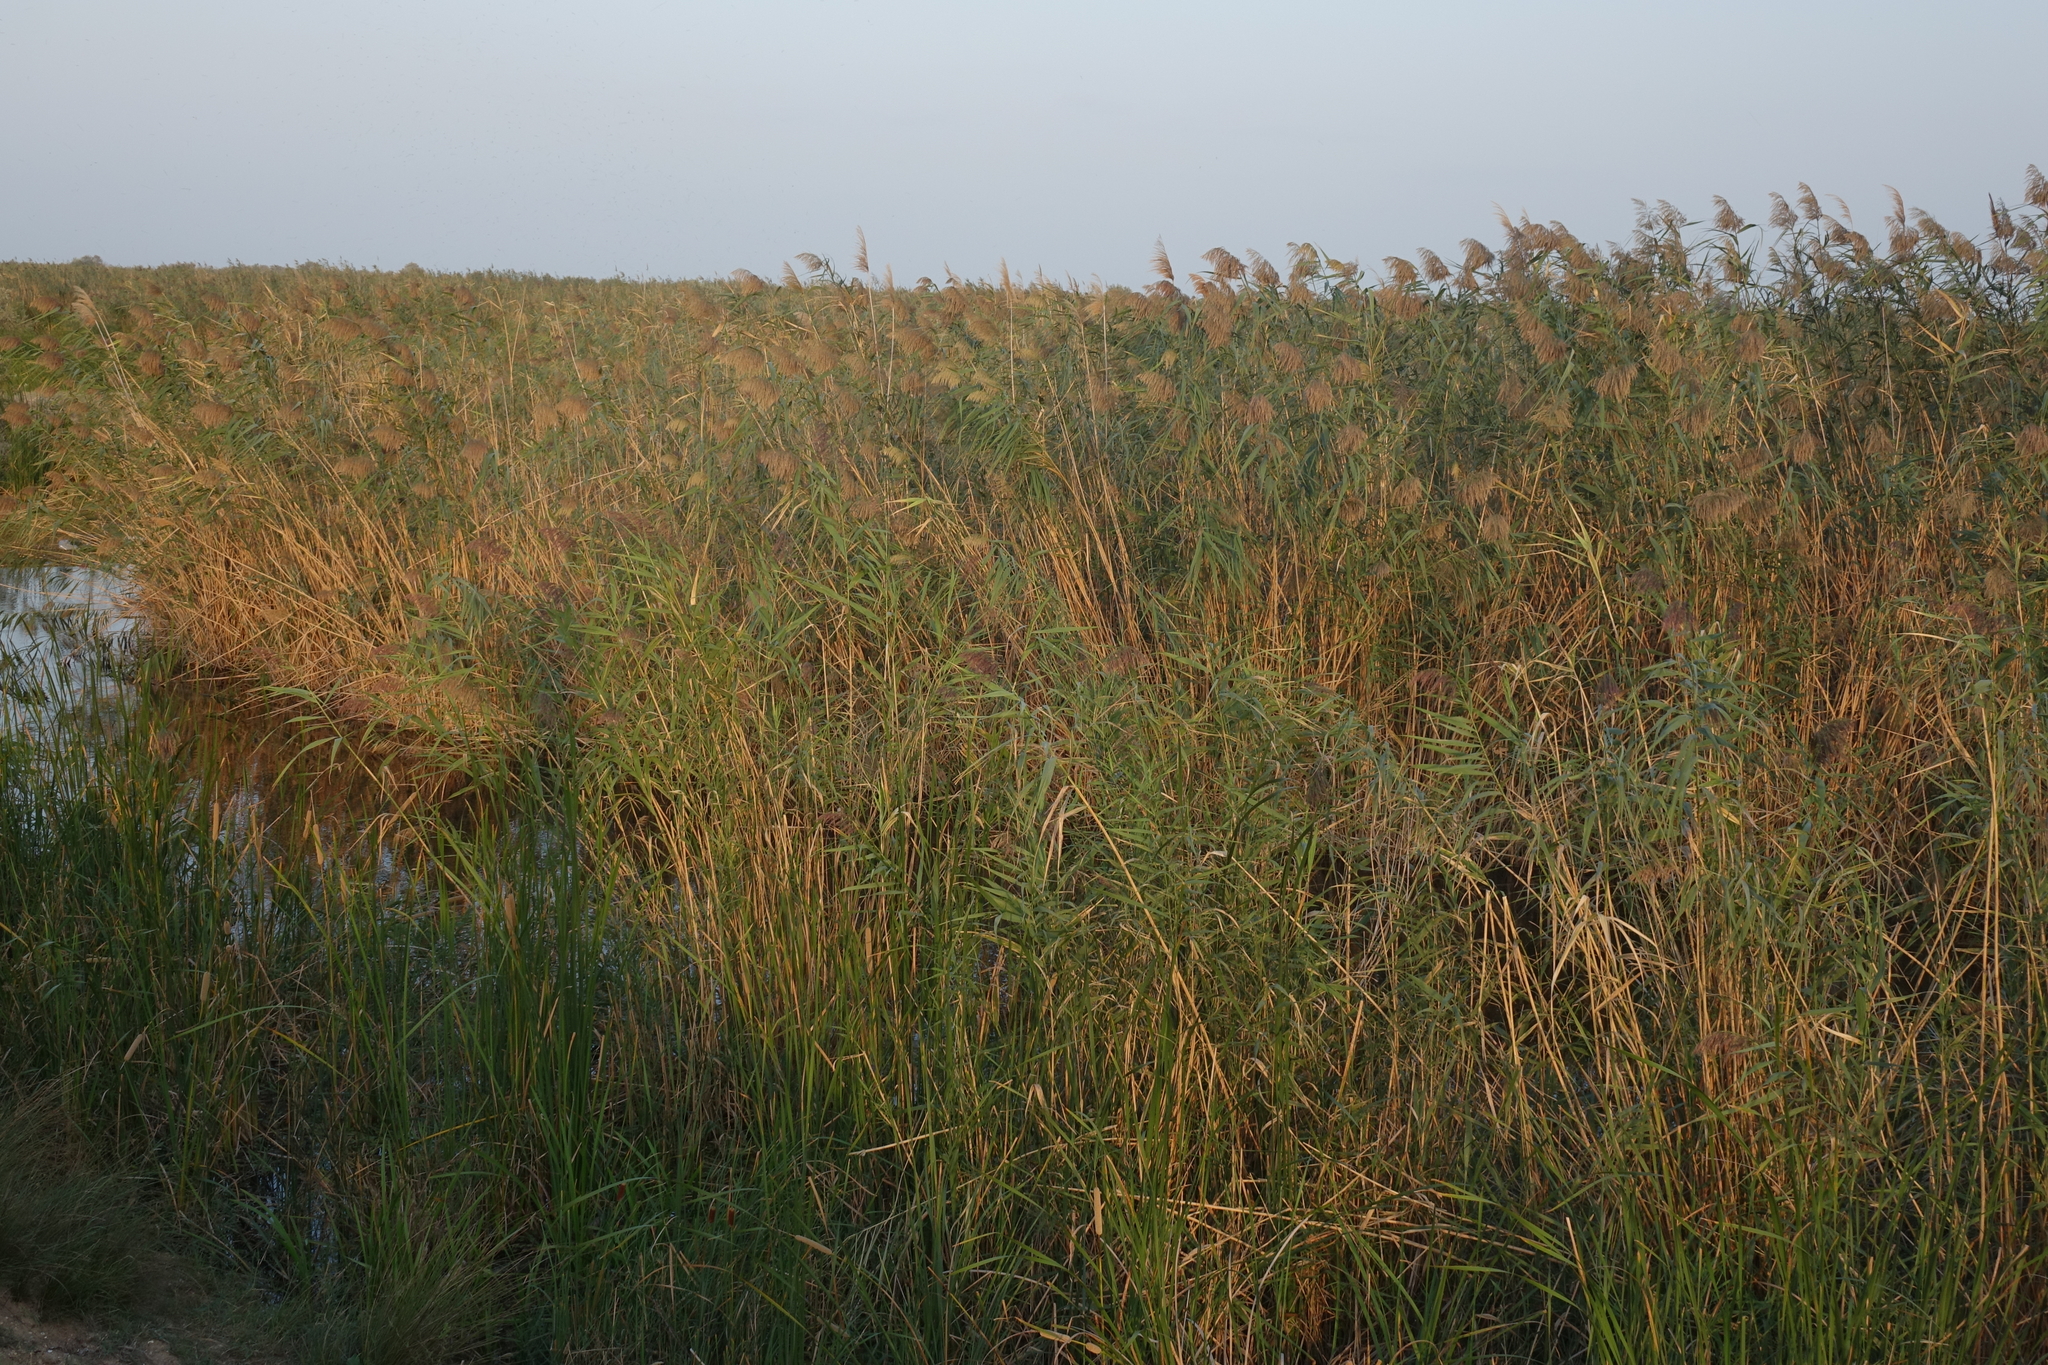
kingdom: Plantae
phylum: Tracheophyta
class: Liliopsida
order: Poales
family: Poaceae
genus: Phragmites
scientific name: Phragmites australis
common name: Common reed
